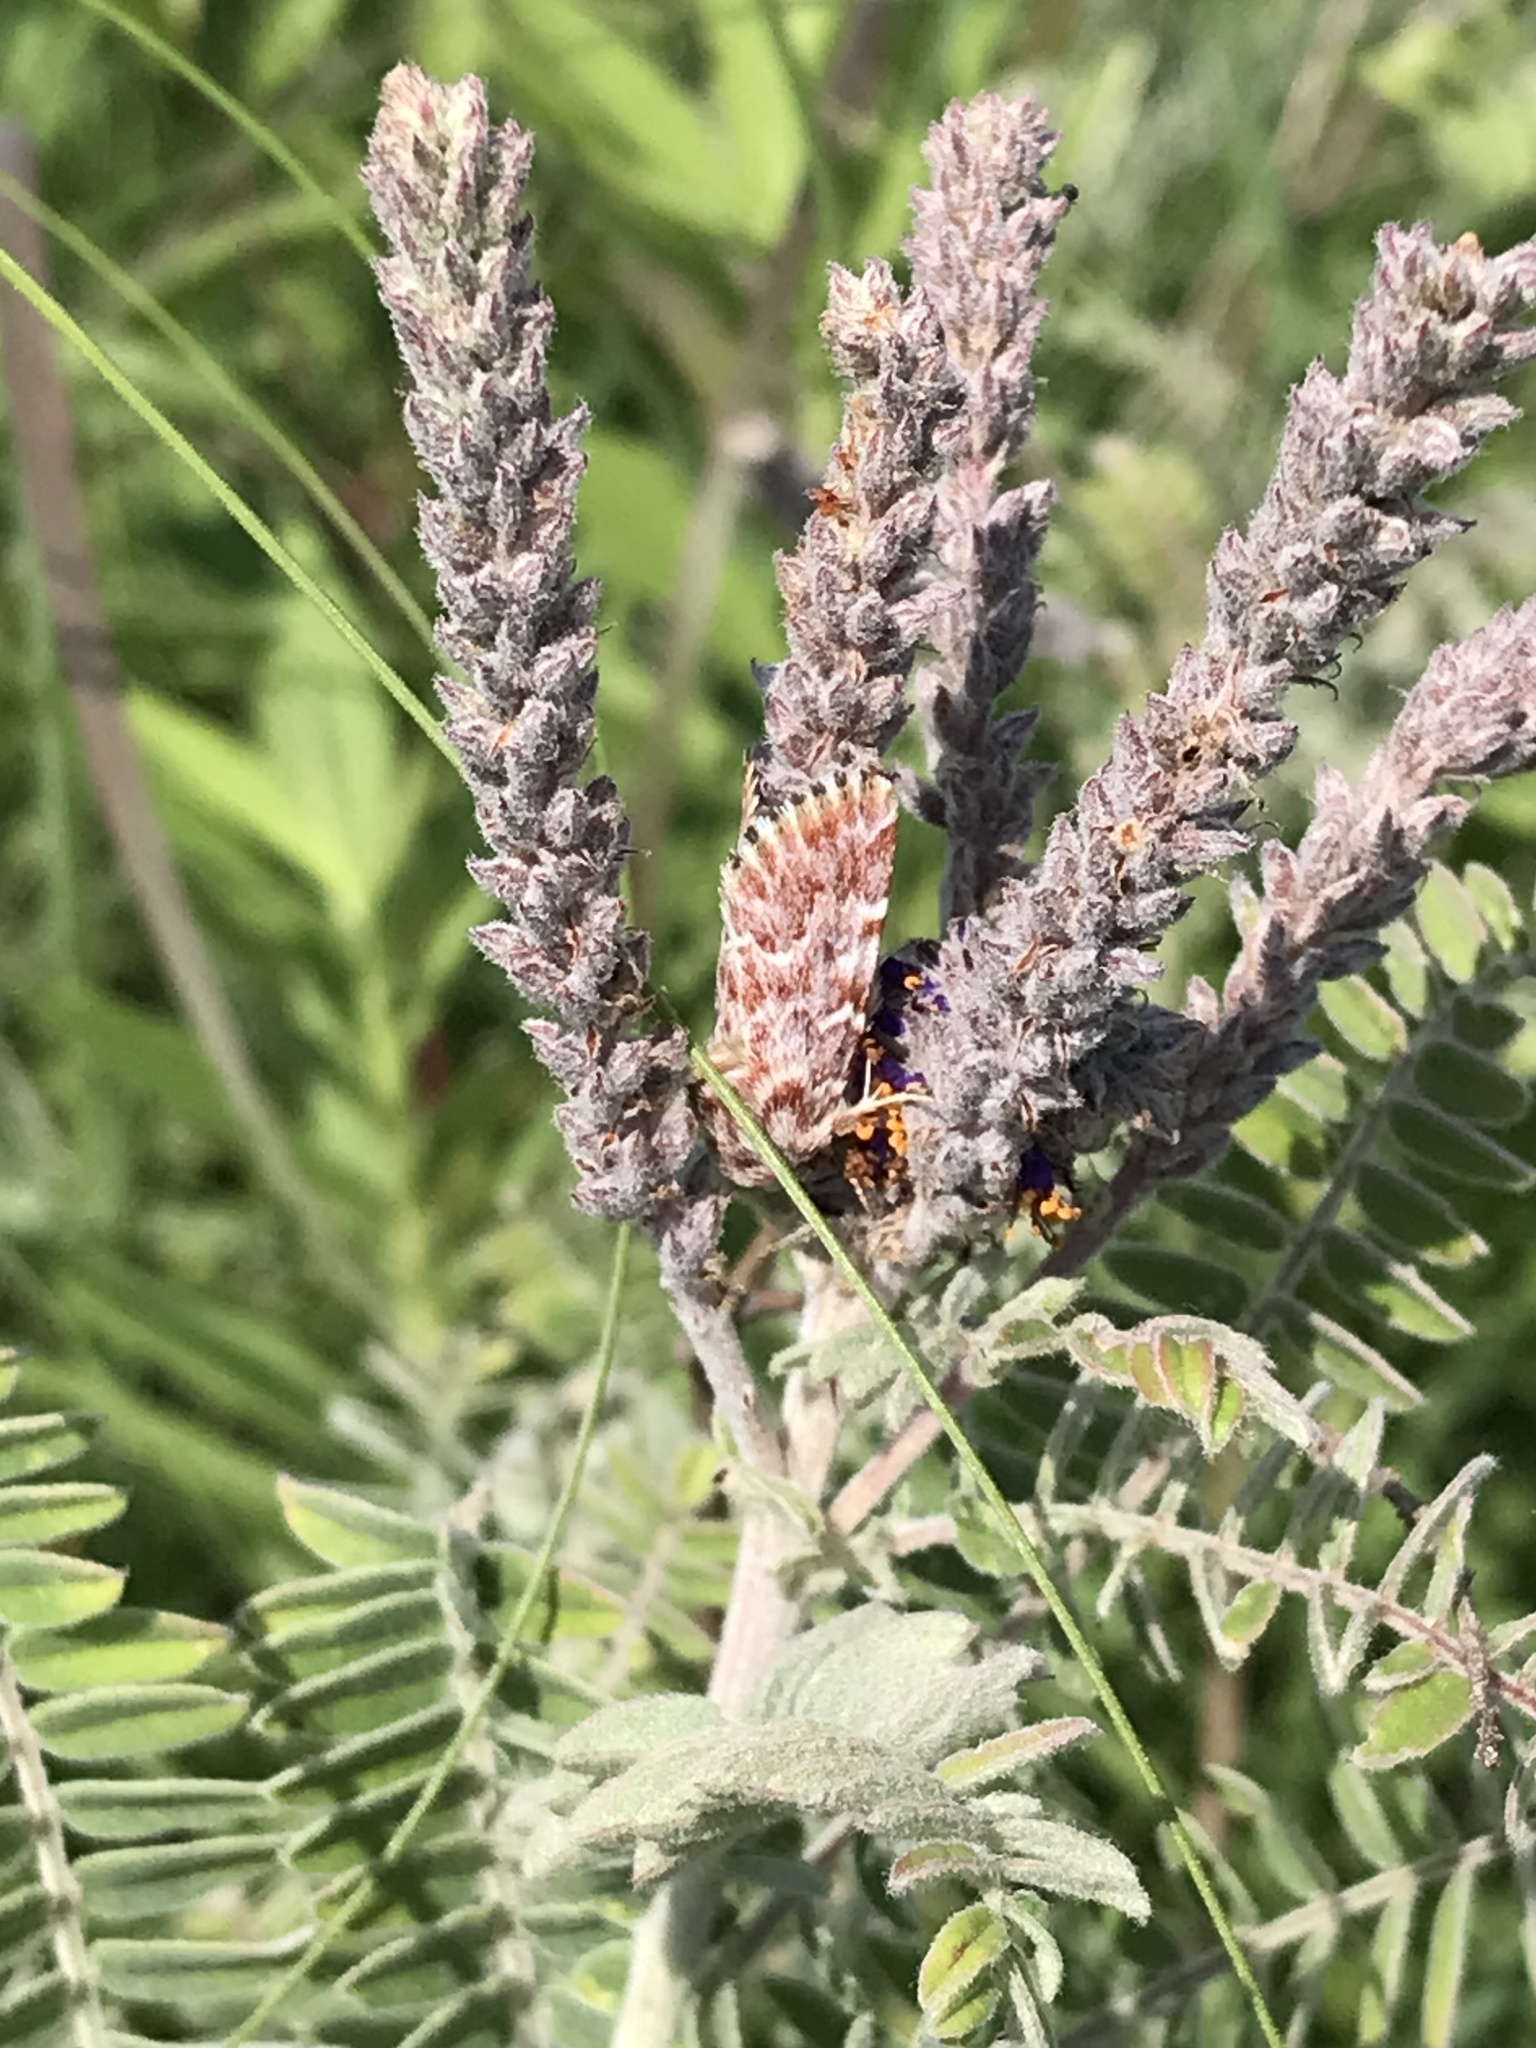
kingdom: Animalia
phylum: Arthropoda
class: Insecta
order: Lepidoptera
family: Noctuidae
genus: Schinia
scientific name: Schinia lucens
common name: Leadplant flower moth
